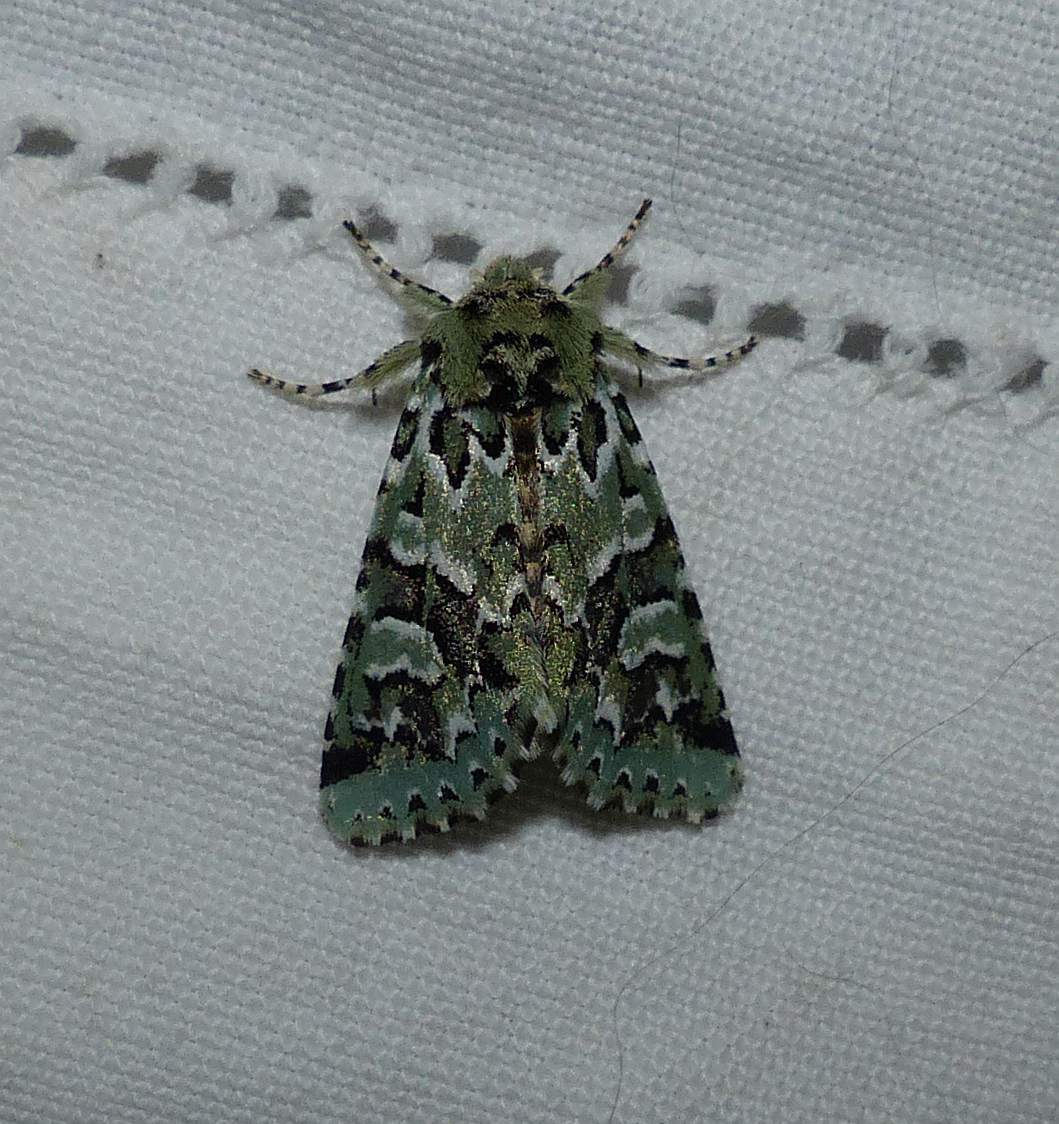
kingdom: Animalia
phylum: Arthropoda
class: Insecta
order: Lepidoptera
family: Noctuidae
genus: Feralia
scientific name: Feralia comstocki
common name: Comstock's sallow
